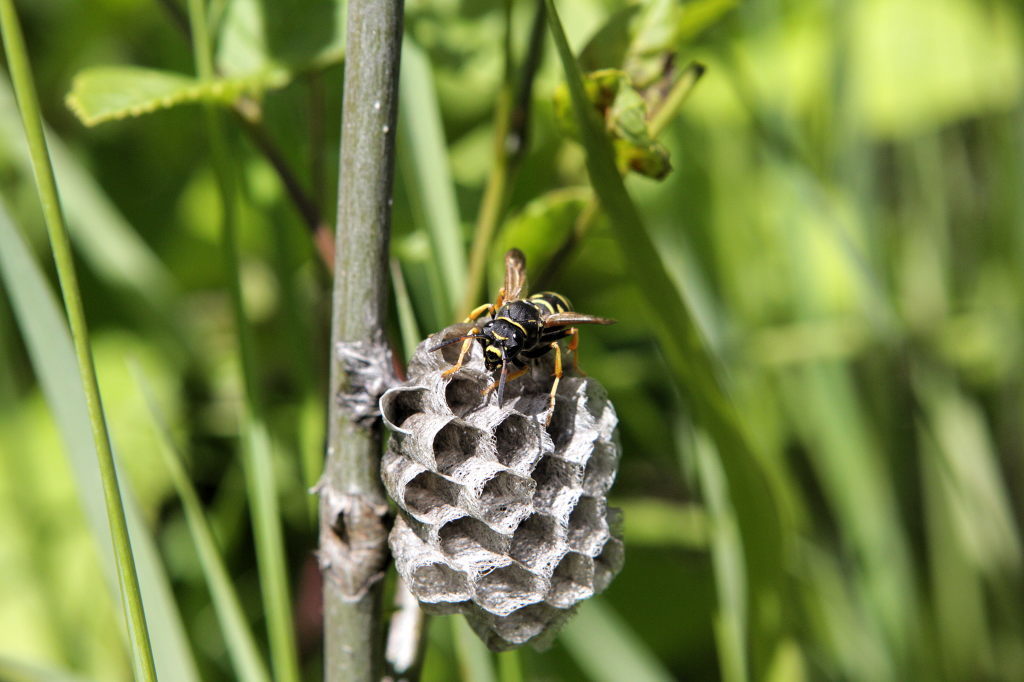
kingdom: Animalia
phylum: Arthropoda
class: Insecta
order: Hymenoptera
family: Eumenidae
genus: Polistes
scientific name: Polistes biglumis
